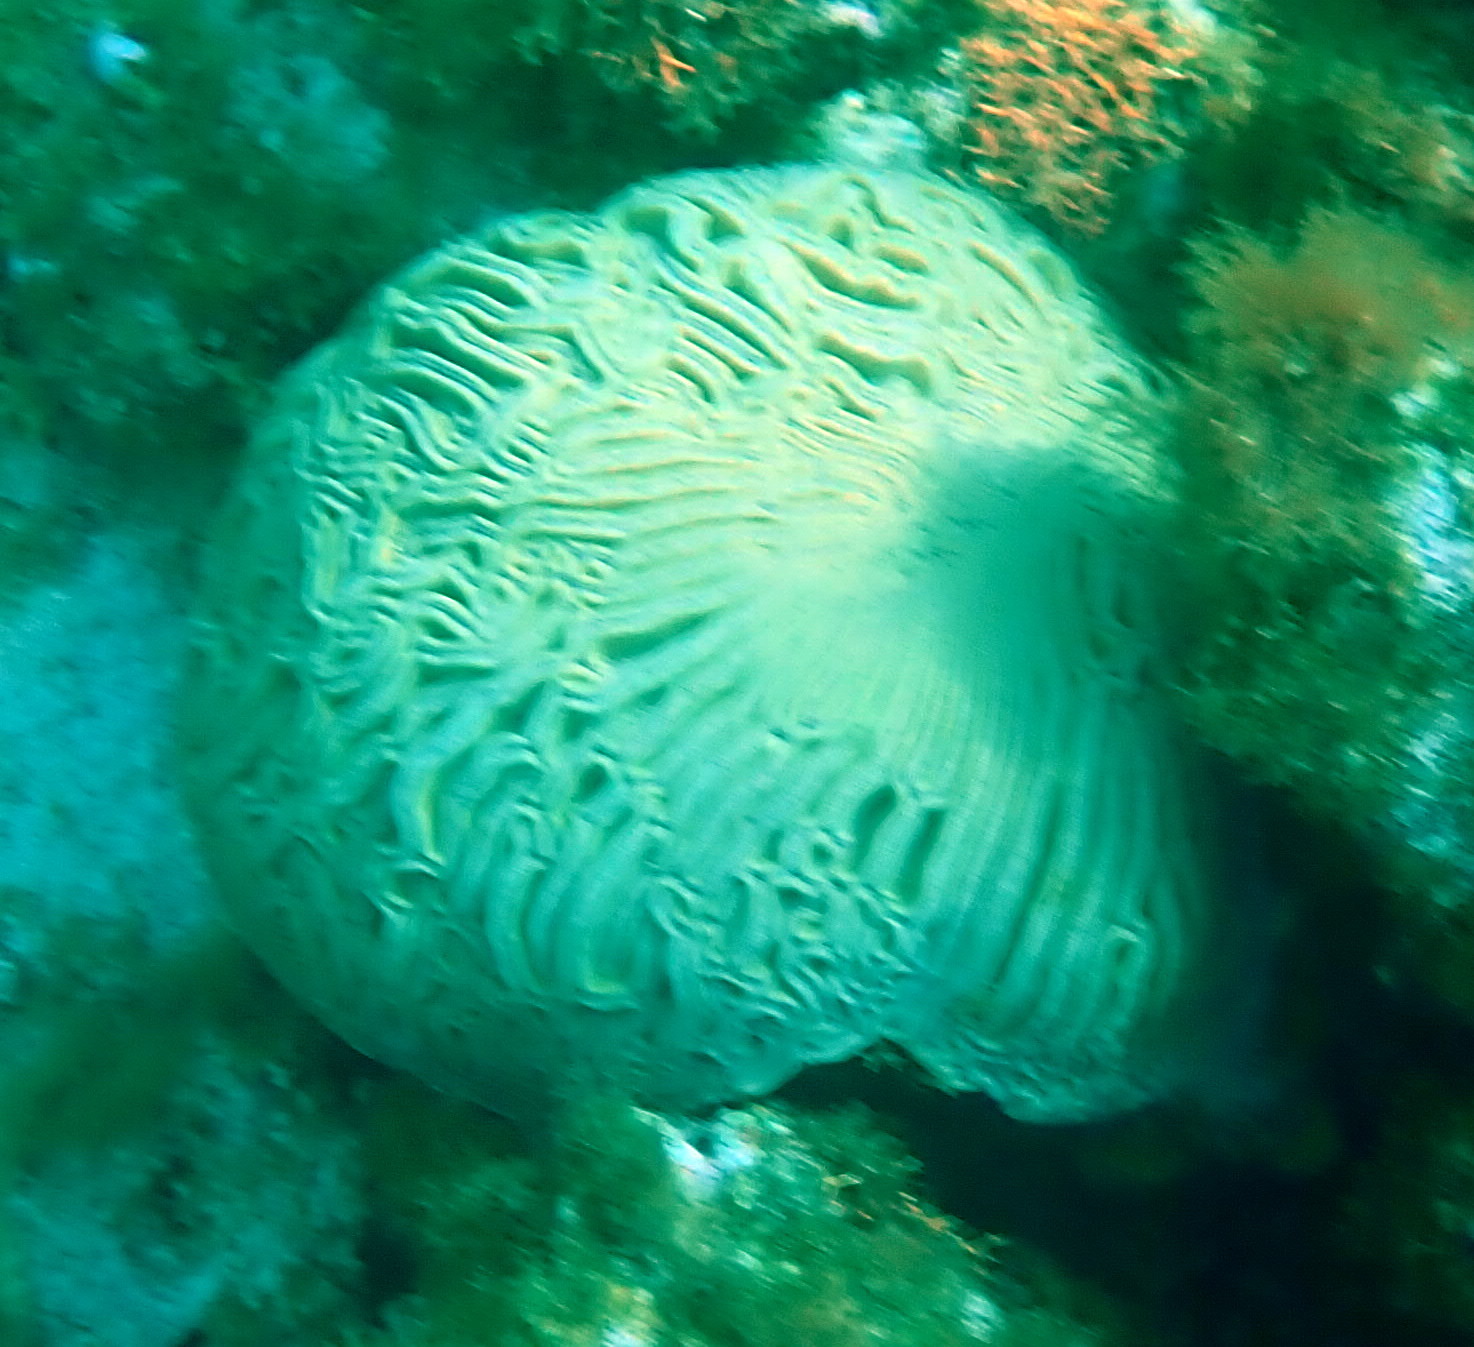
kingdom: Animalia
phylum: Cnidaria
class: Anthozoa
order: Scleractinia
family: Faviidae
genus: Diploria
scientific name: Diploria labyrinthiformis
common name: Grooved brain coral
